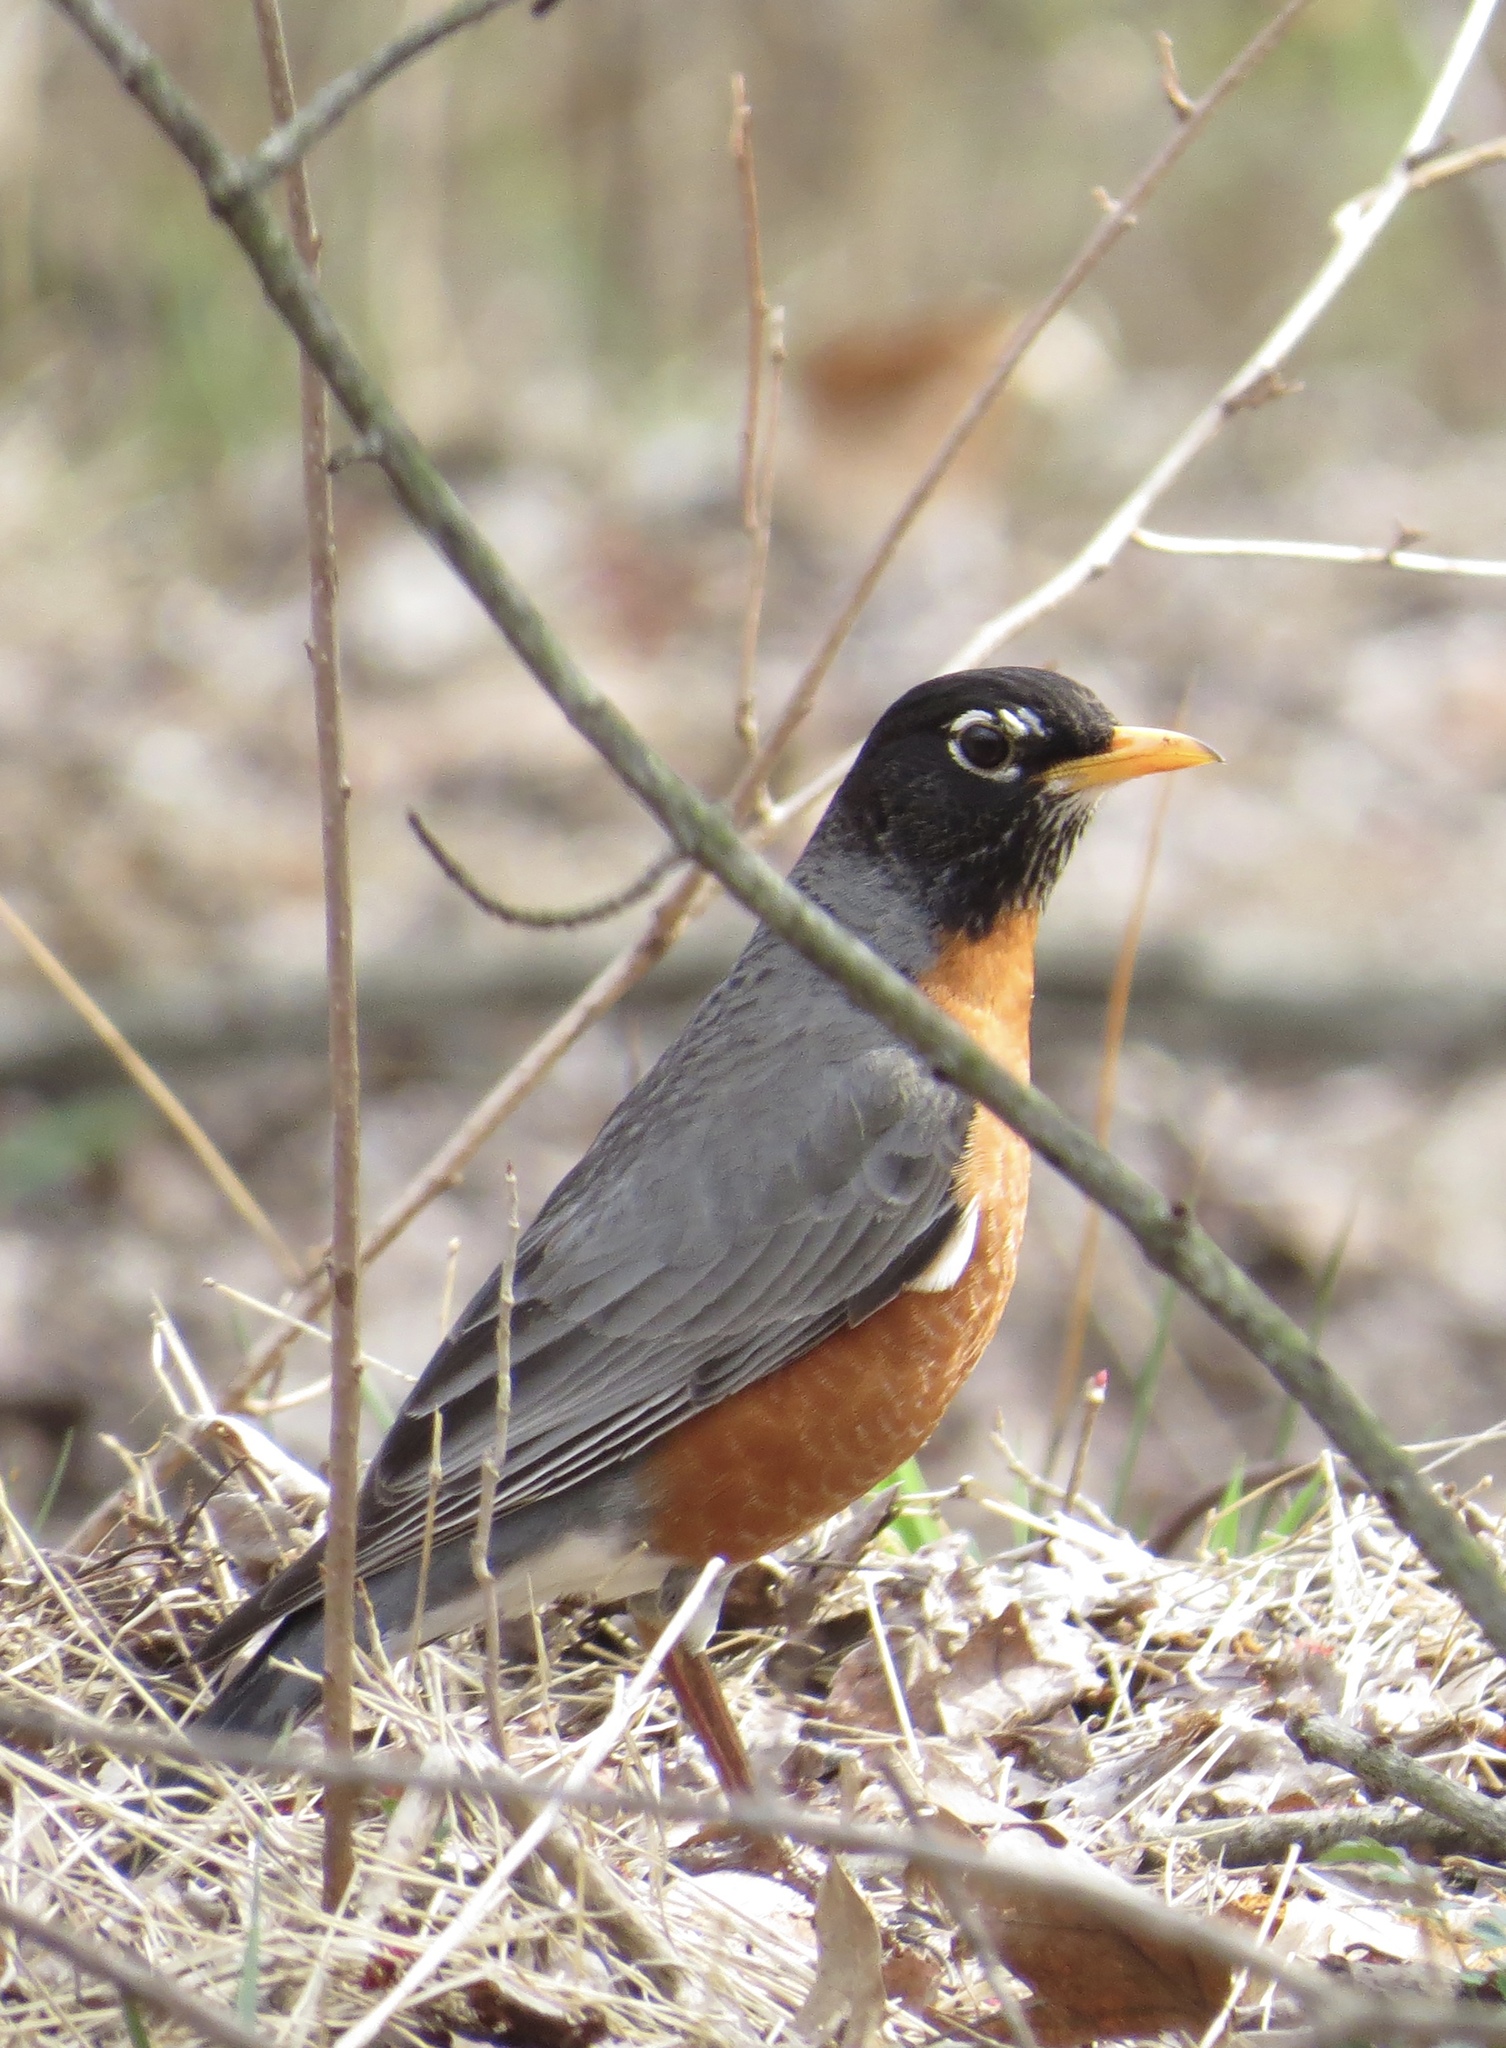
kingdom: Animalia
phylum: Chordata
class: Aves
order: Passeriformes
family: Turdidae
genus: Turdus
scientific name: Turdus migratorius
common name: American robin
